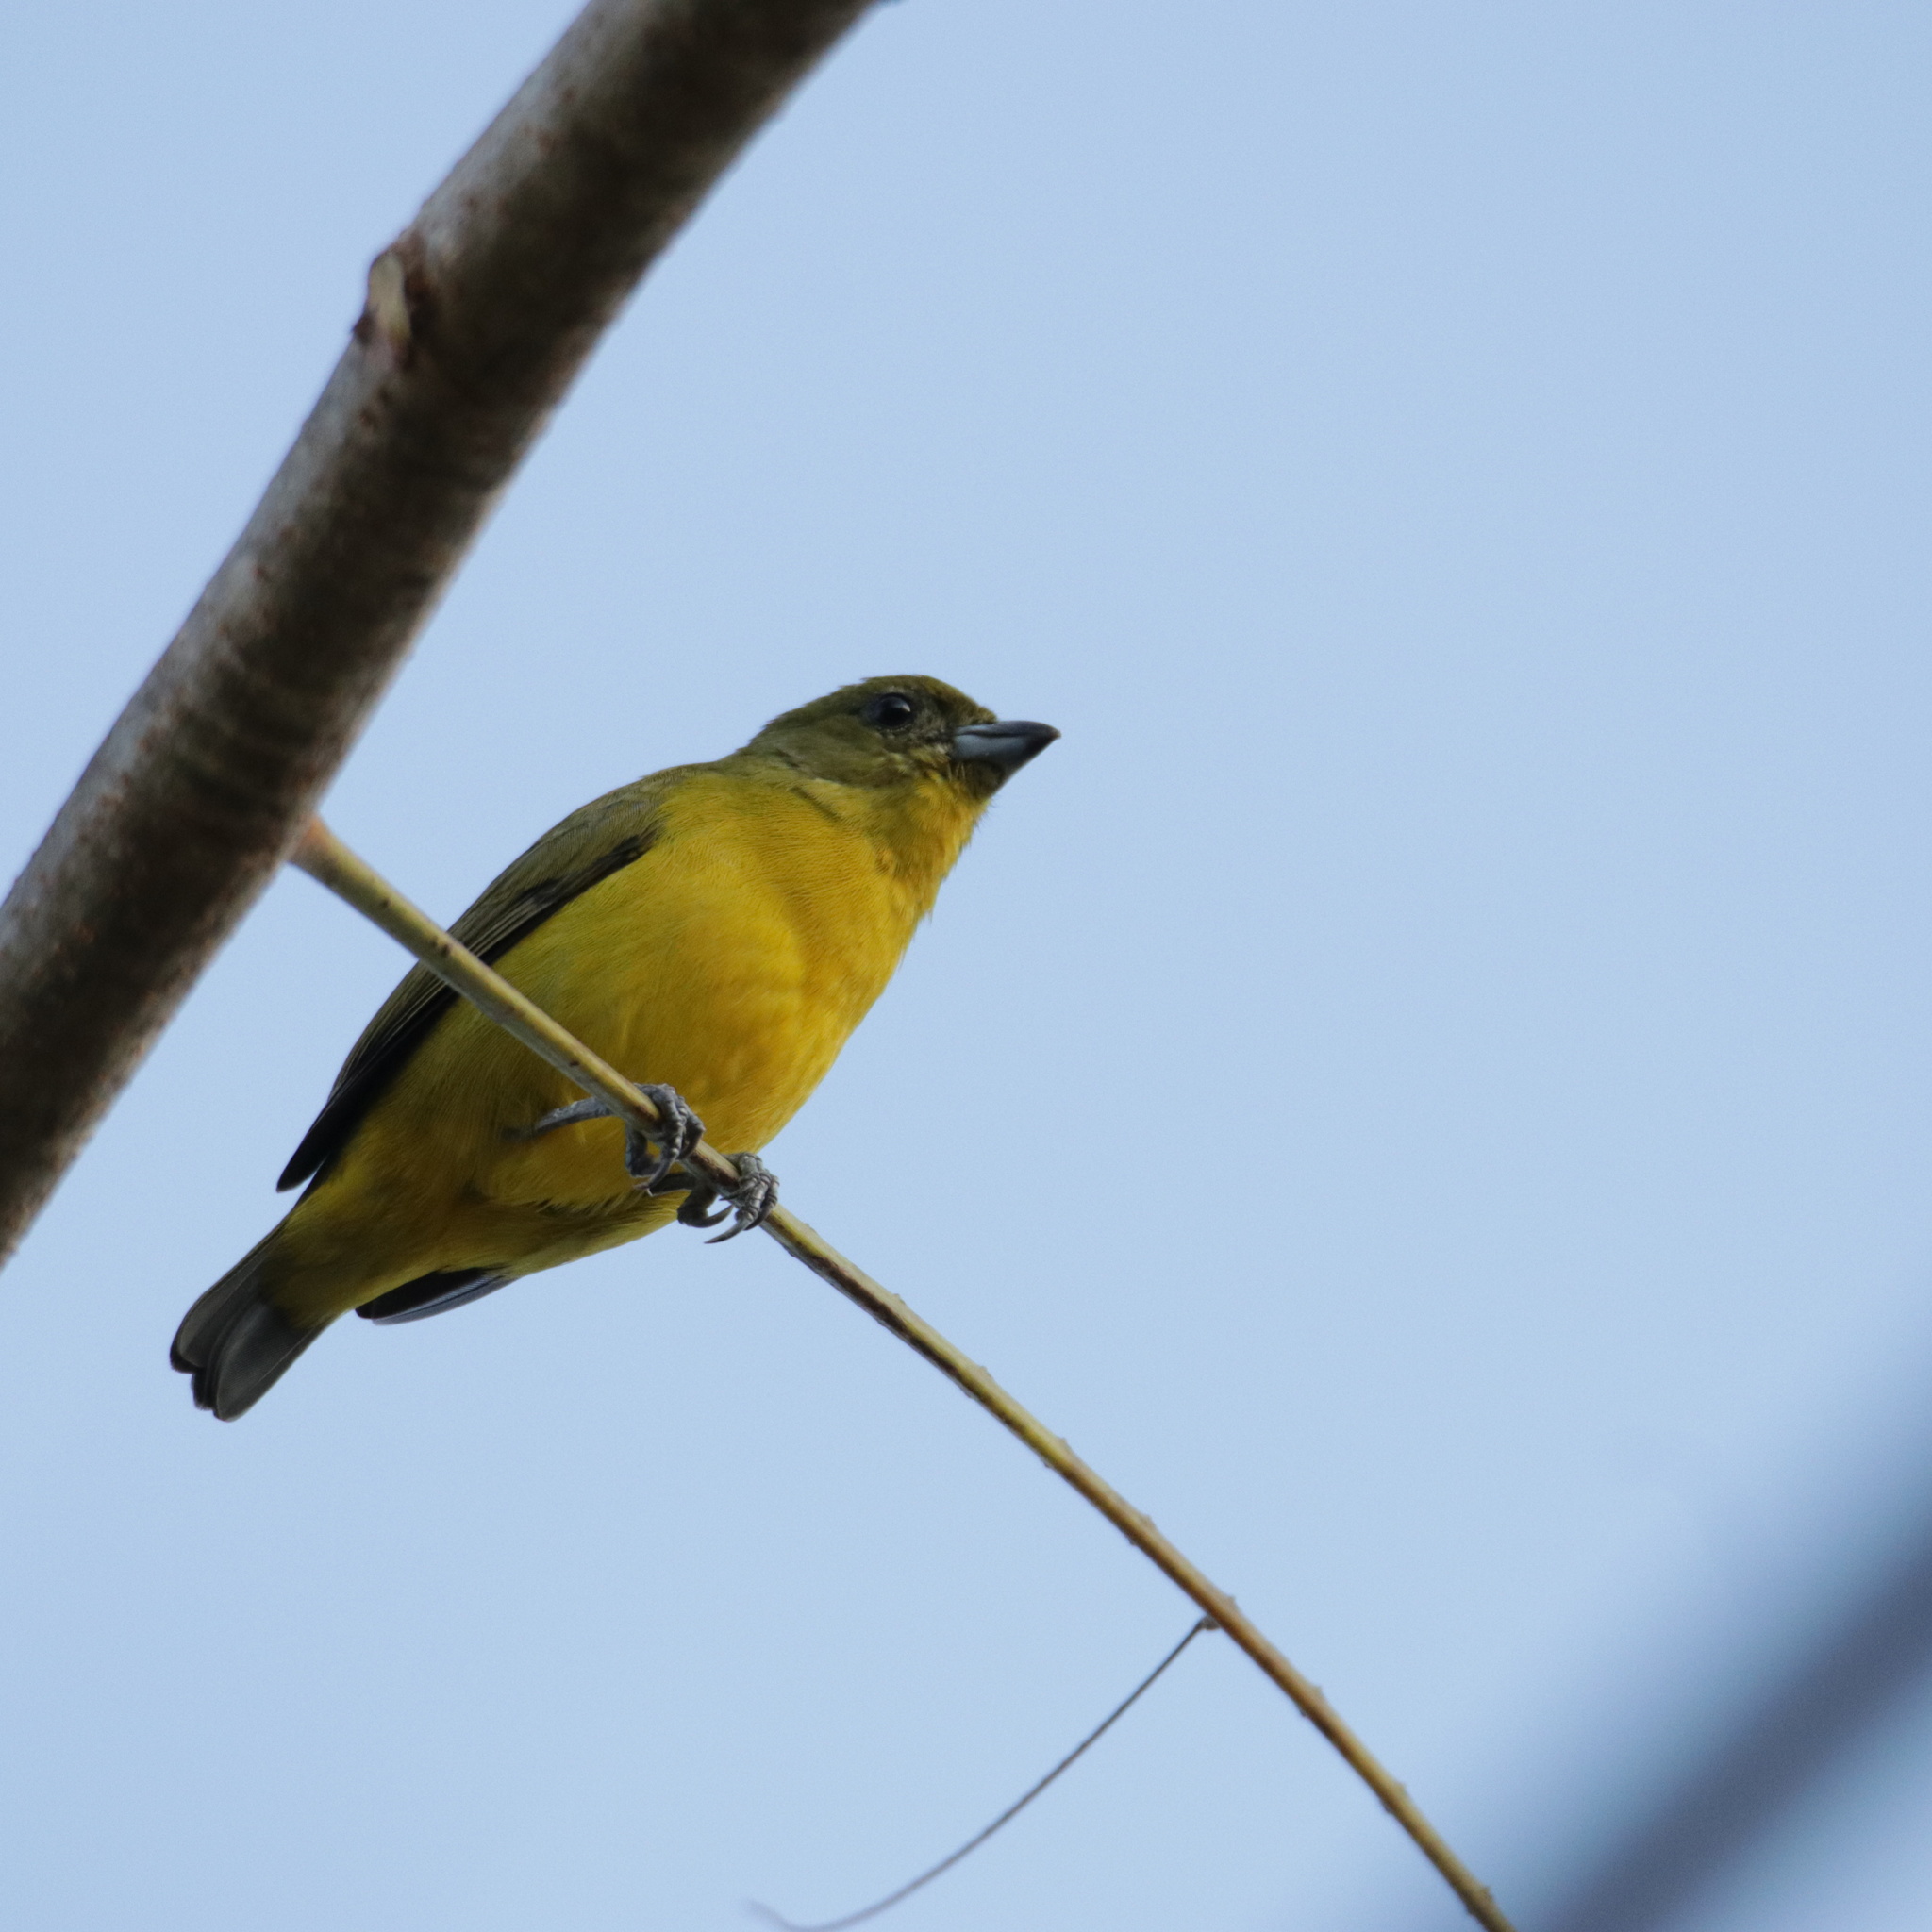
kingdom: Animalia
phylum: Chordata
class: Aves
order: Passeriformes
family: Fringillidae
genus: Euphonia
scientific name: Euphonia laniirostris
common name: Thick-billed euphonia
